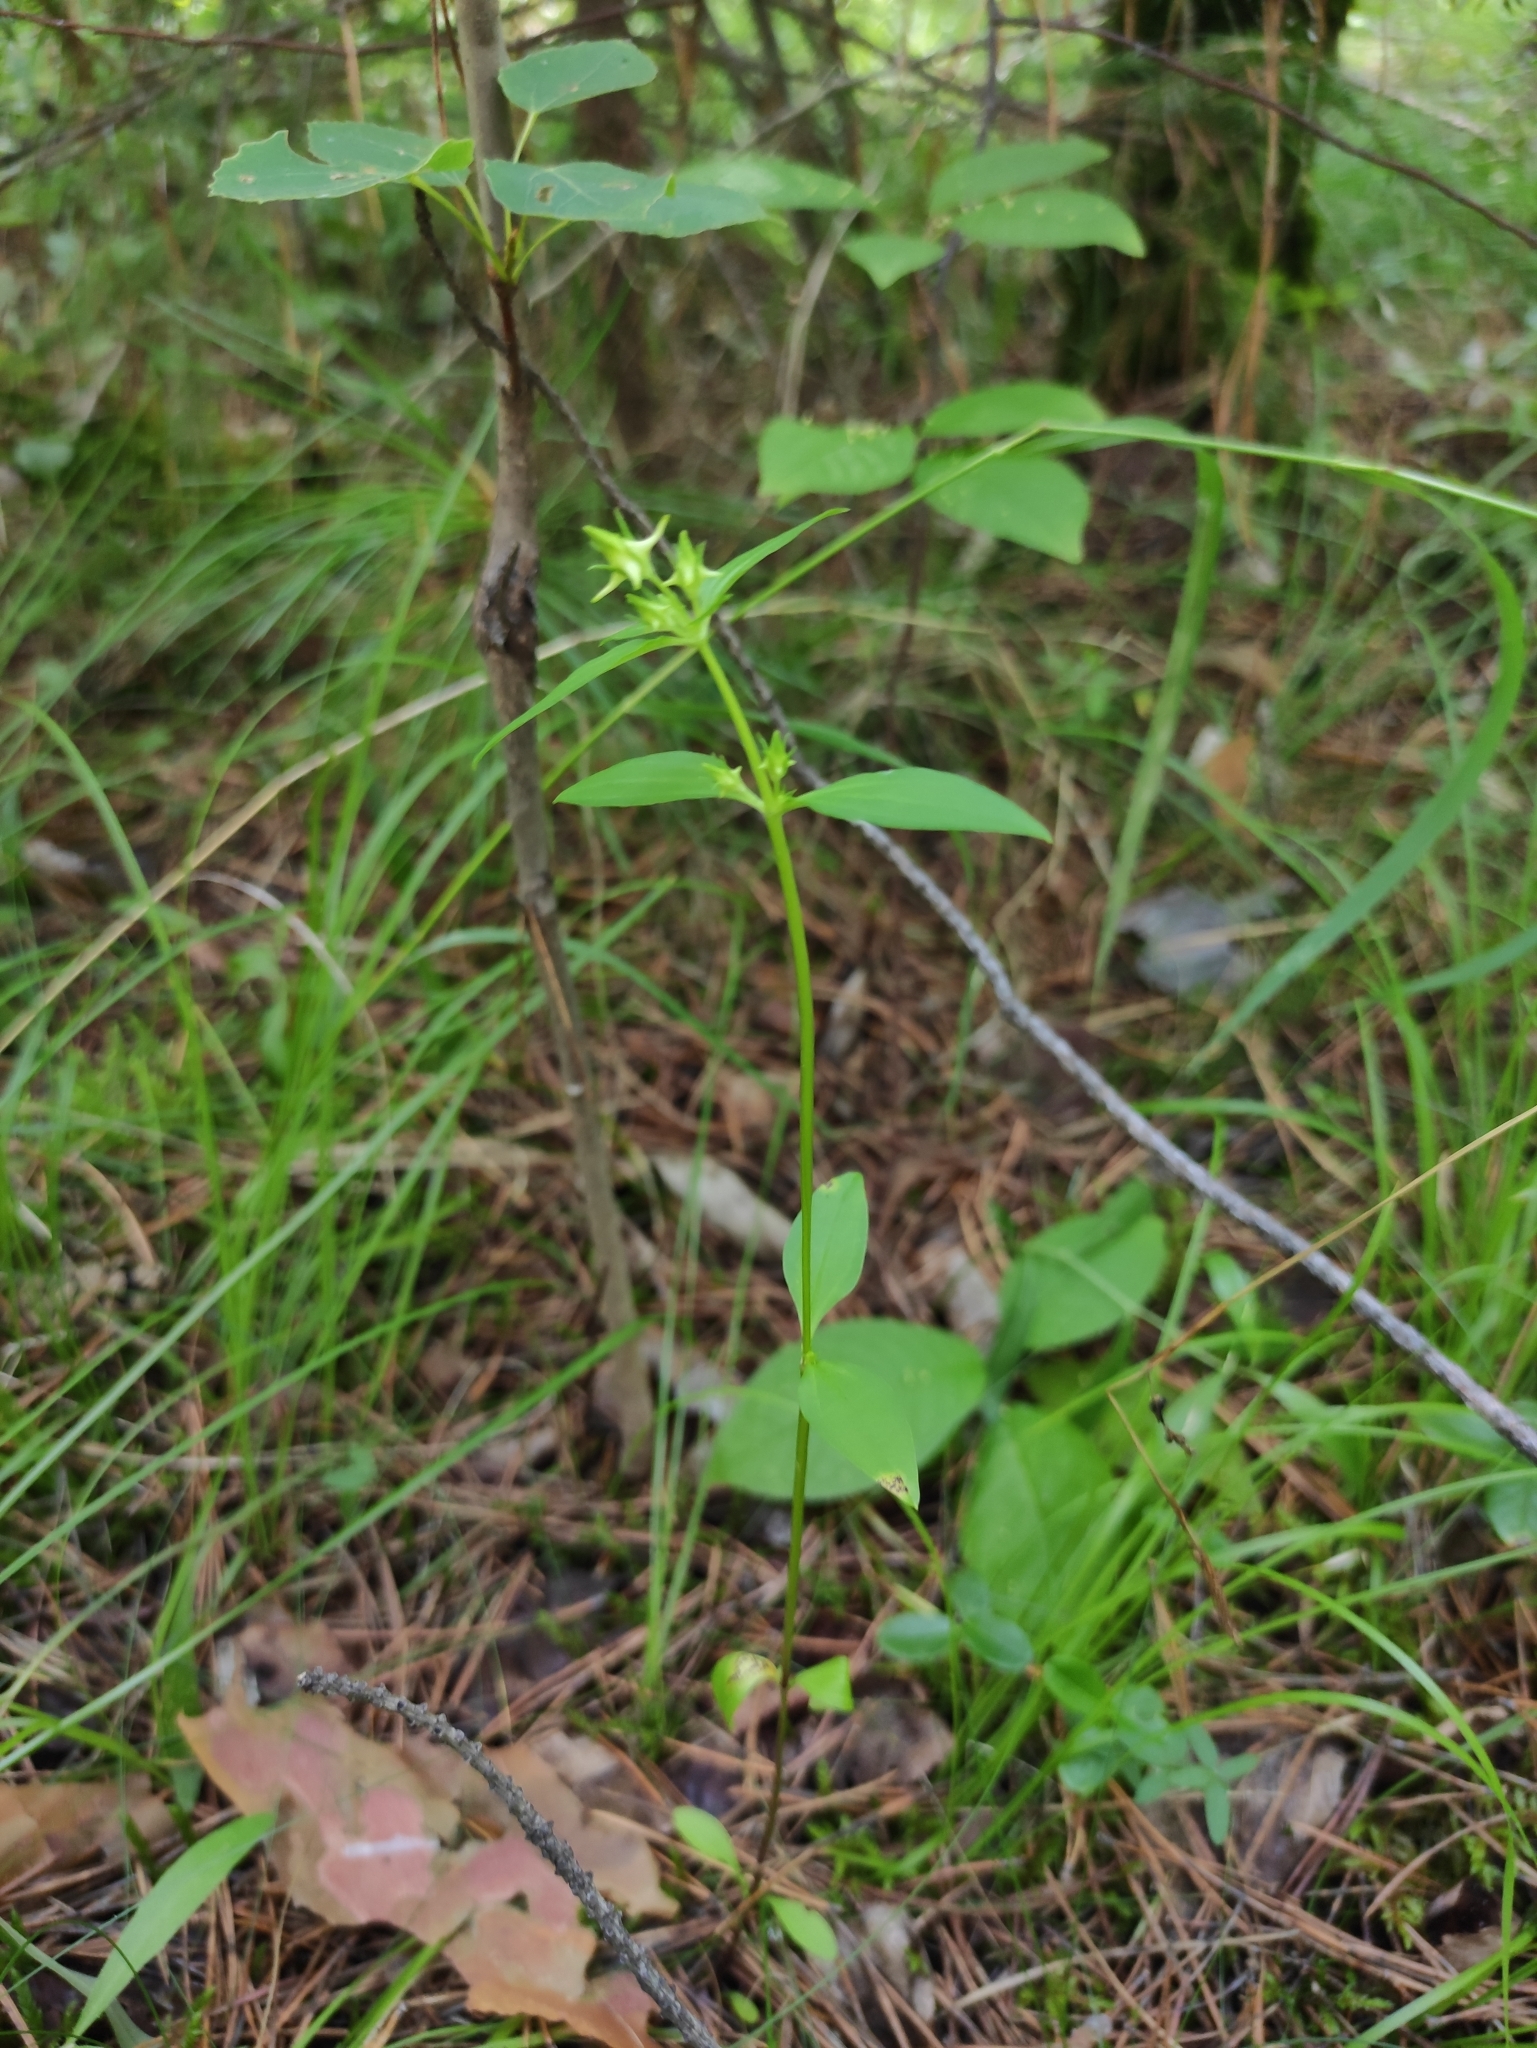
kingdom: Plantae
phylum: Tracheophyta
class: Magnoliopsida
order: Gentianales
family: Gentianaceae
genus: Halenia
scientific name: Halenia corniculata
